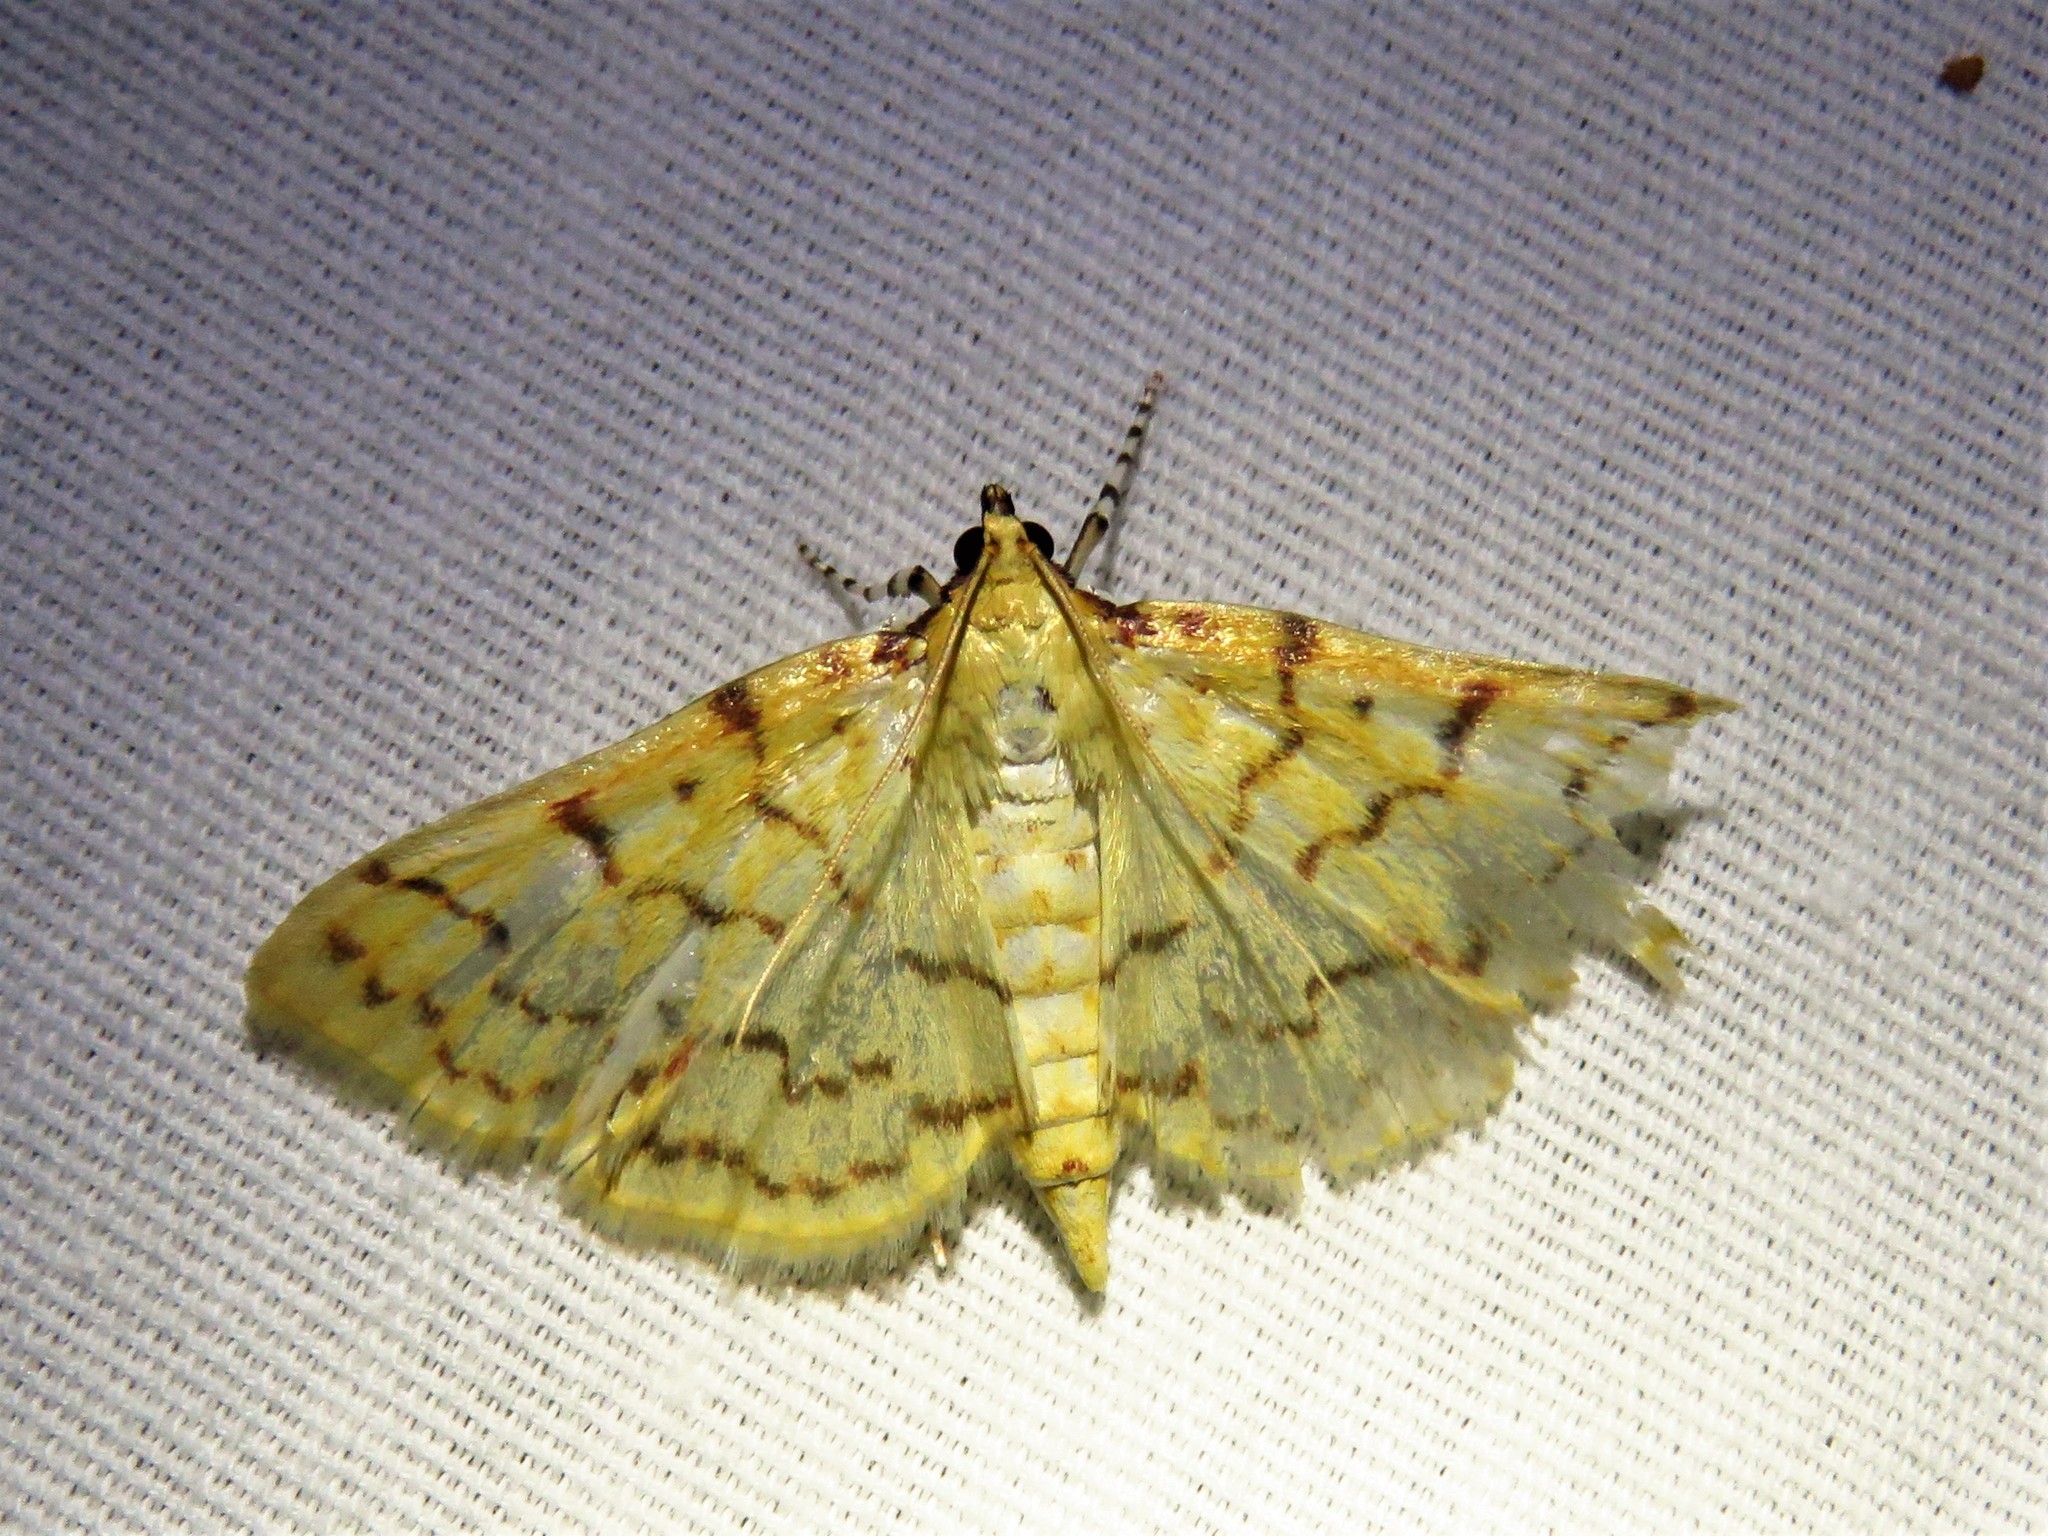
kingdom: Animalia
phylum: Arthropoda
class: Insecta
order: Lepidoptera
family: Crambidae
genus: Polygrammodes
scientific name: Polygrammodes flavidalis
